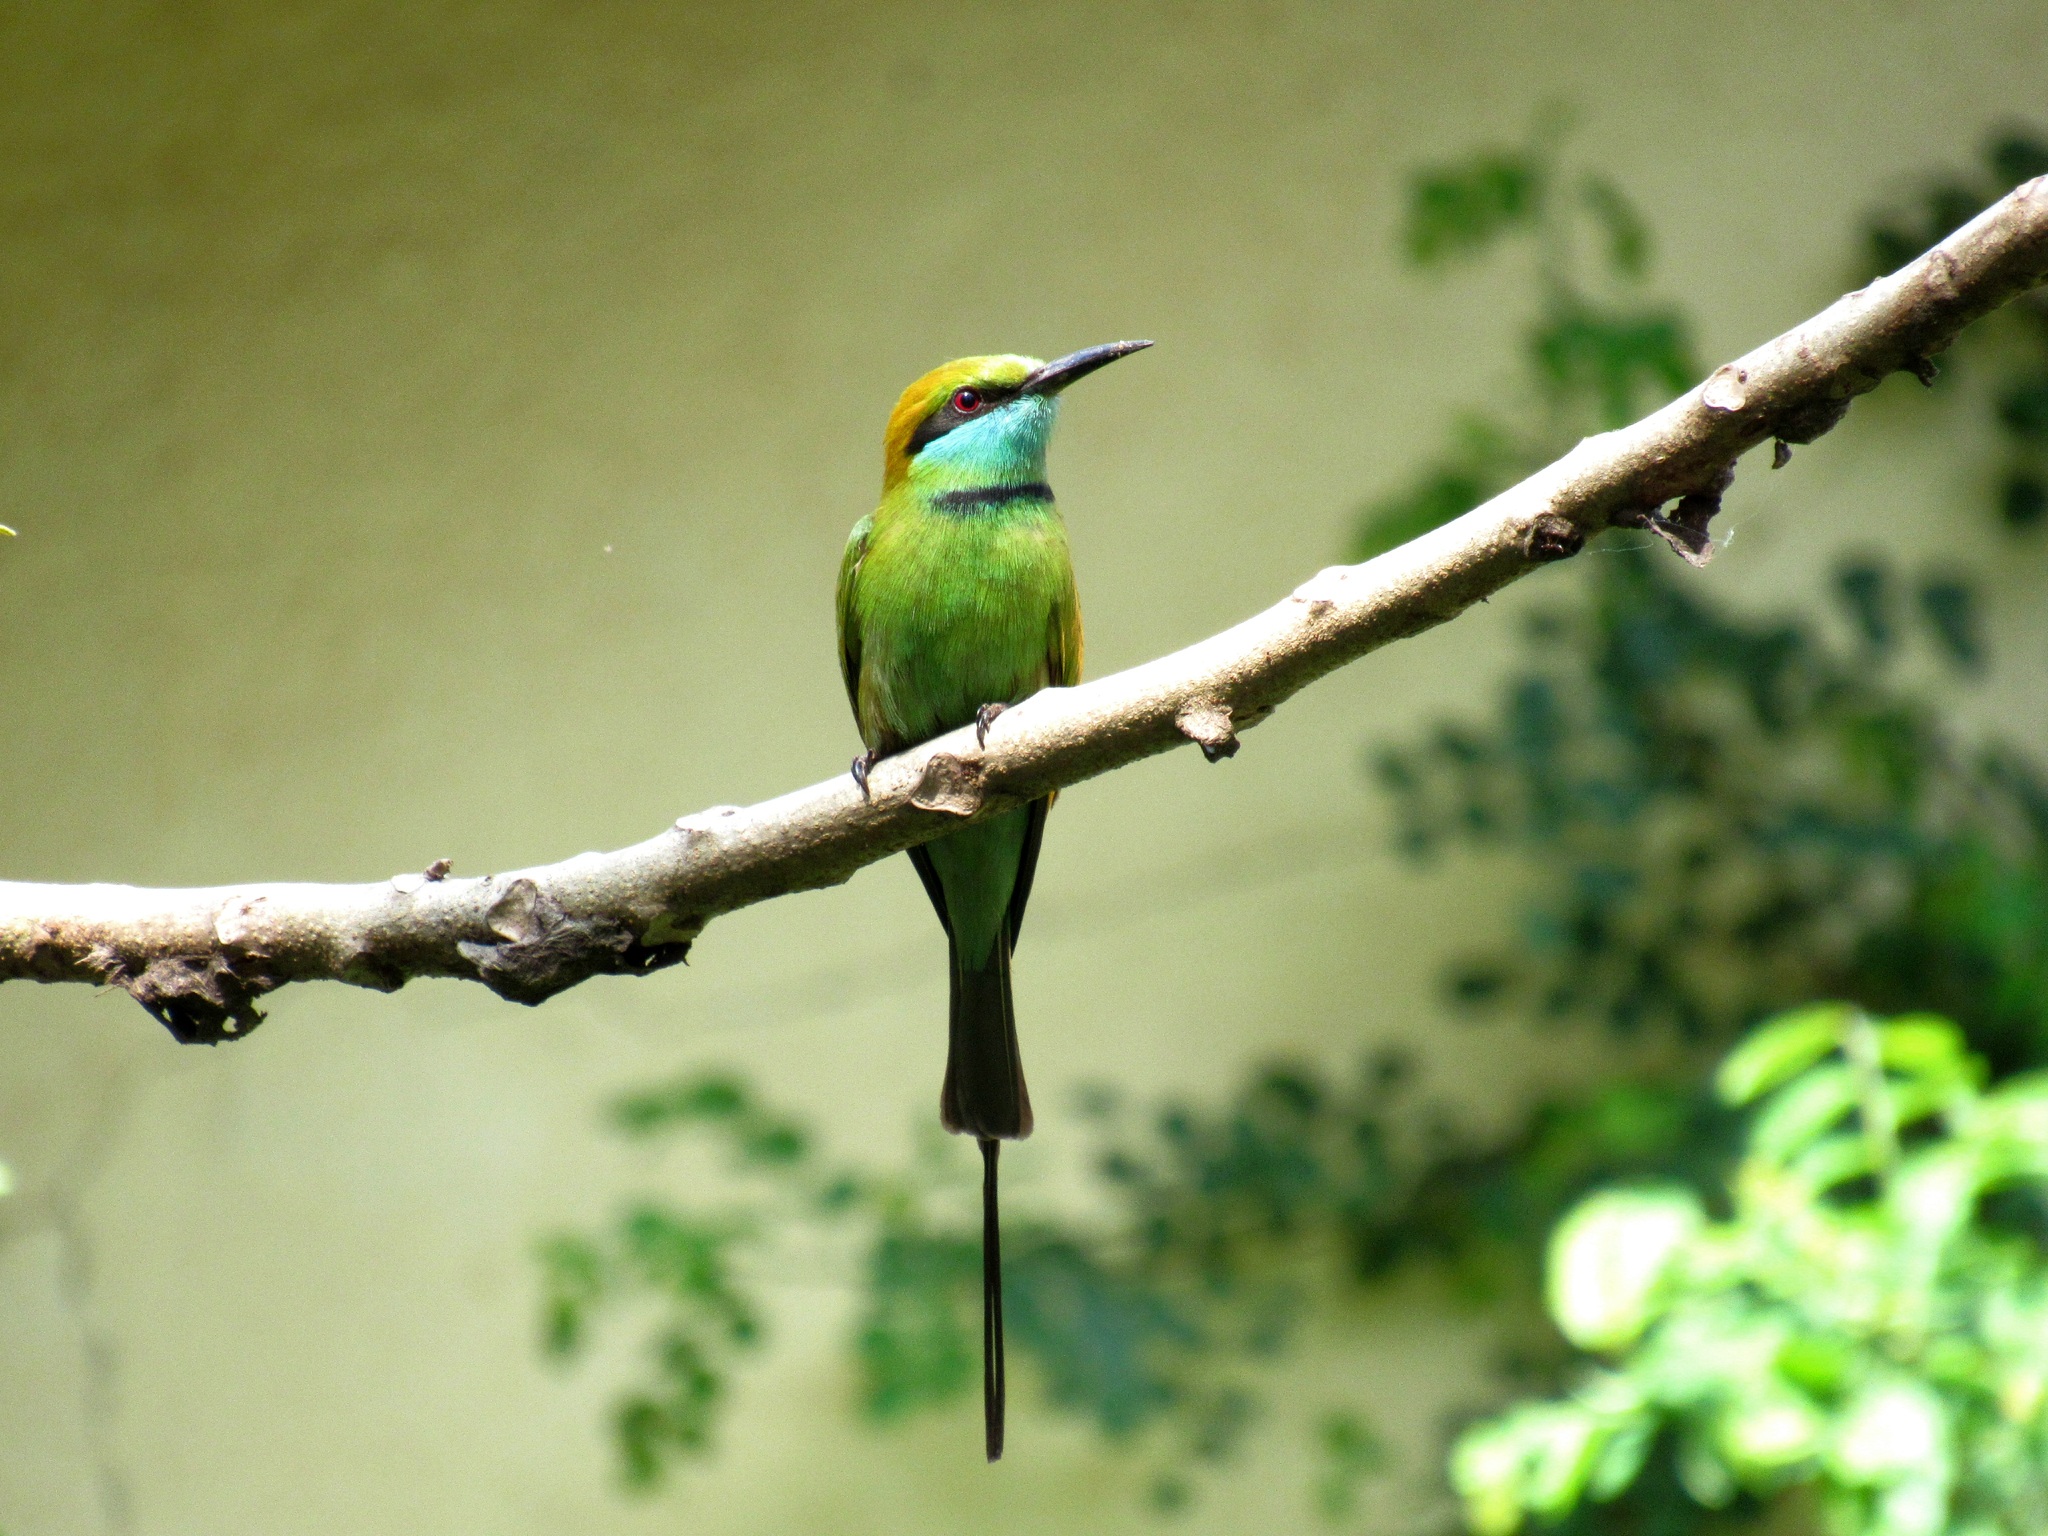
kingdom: Animalia
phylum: Chordata
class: Aves
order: Coraciiformes
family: Meropidae
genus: Merops
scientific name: Merops orientalis
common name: Green bee-eater
